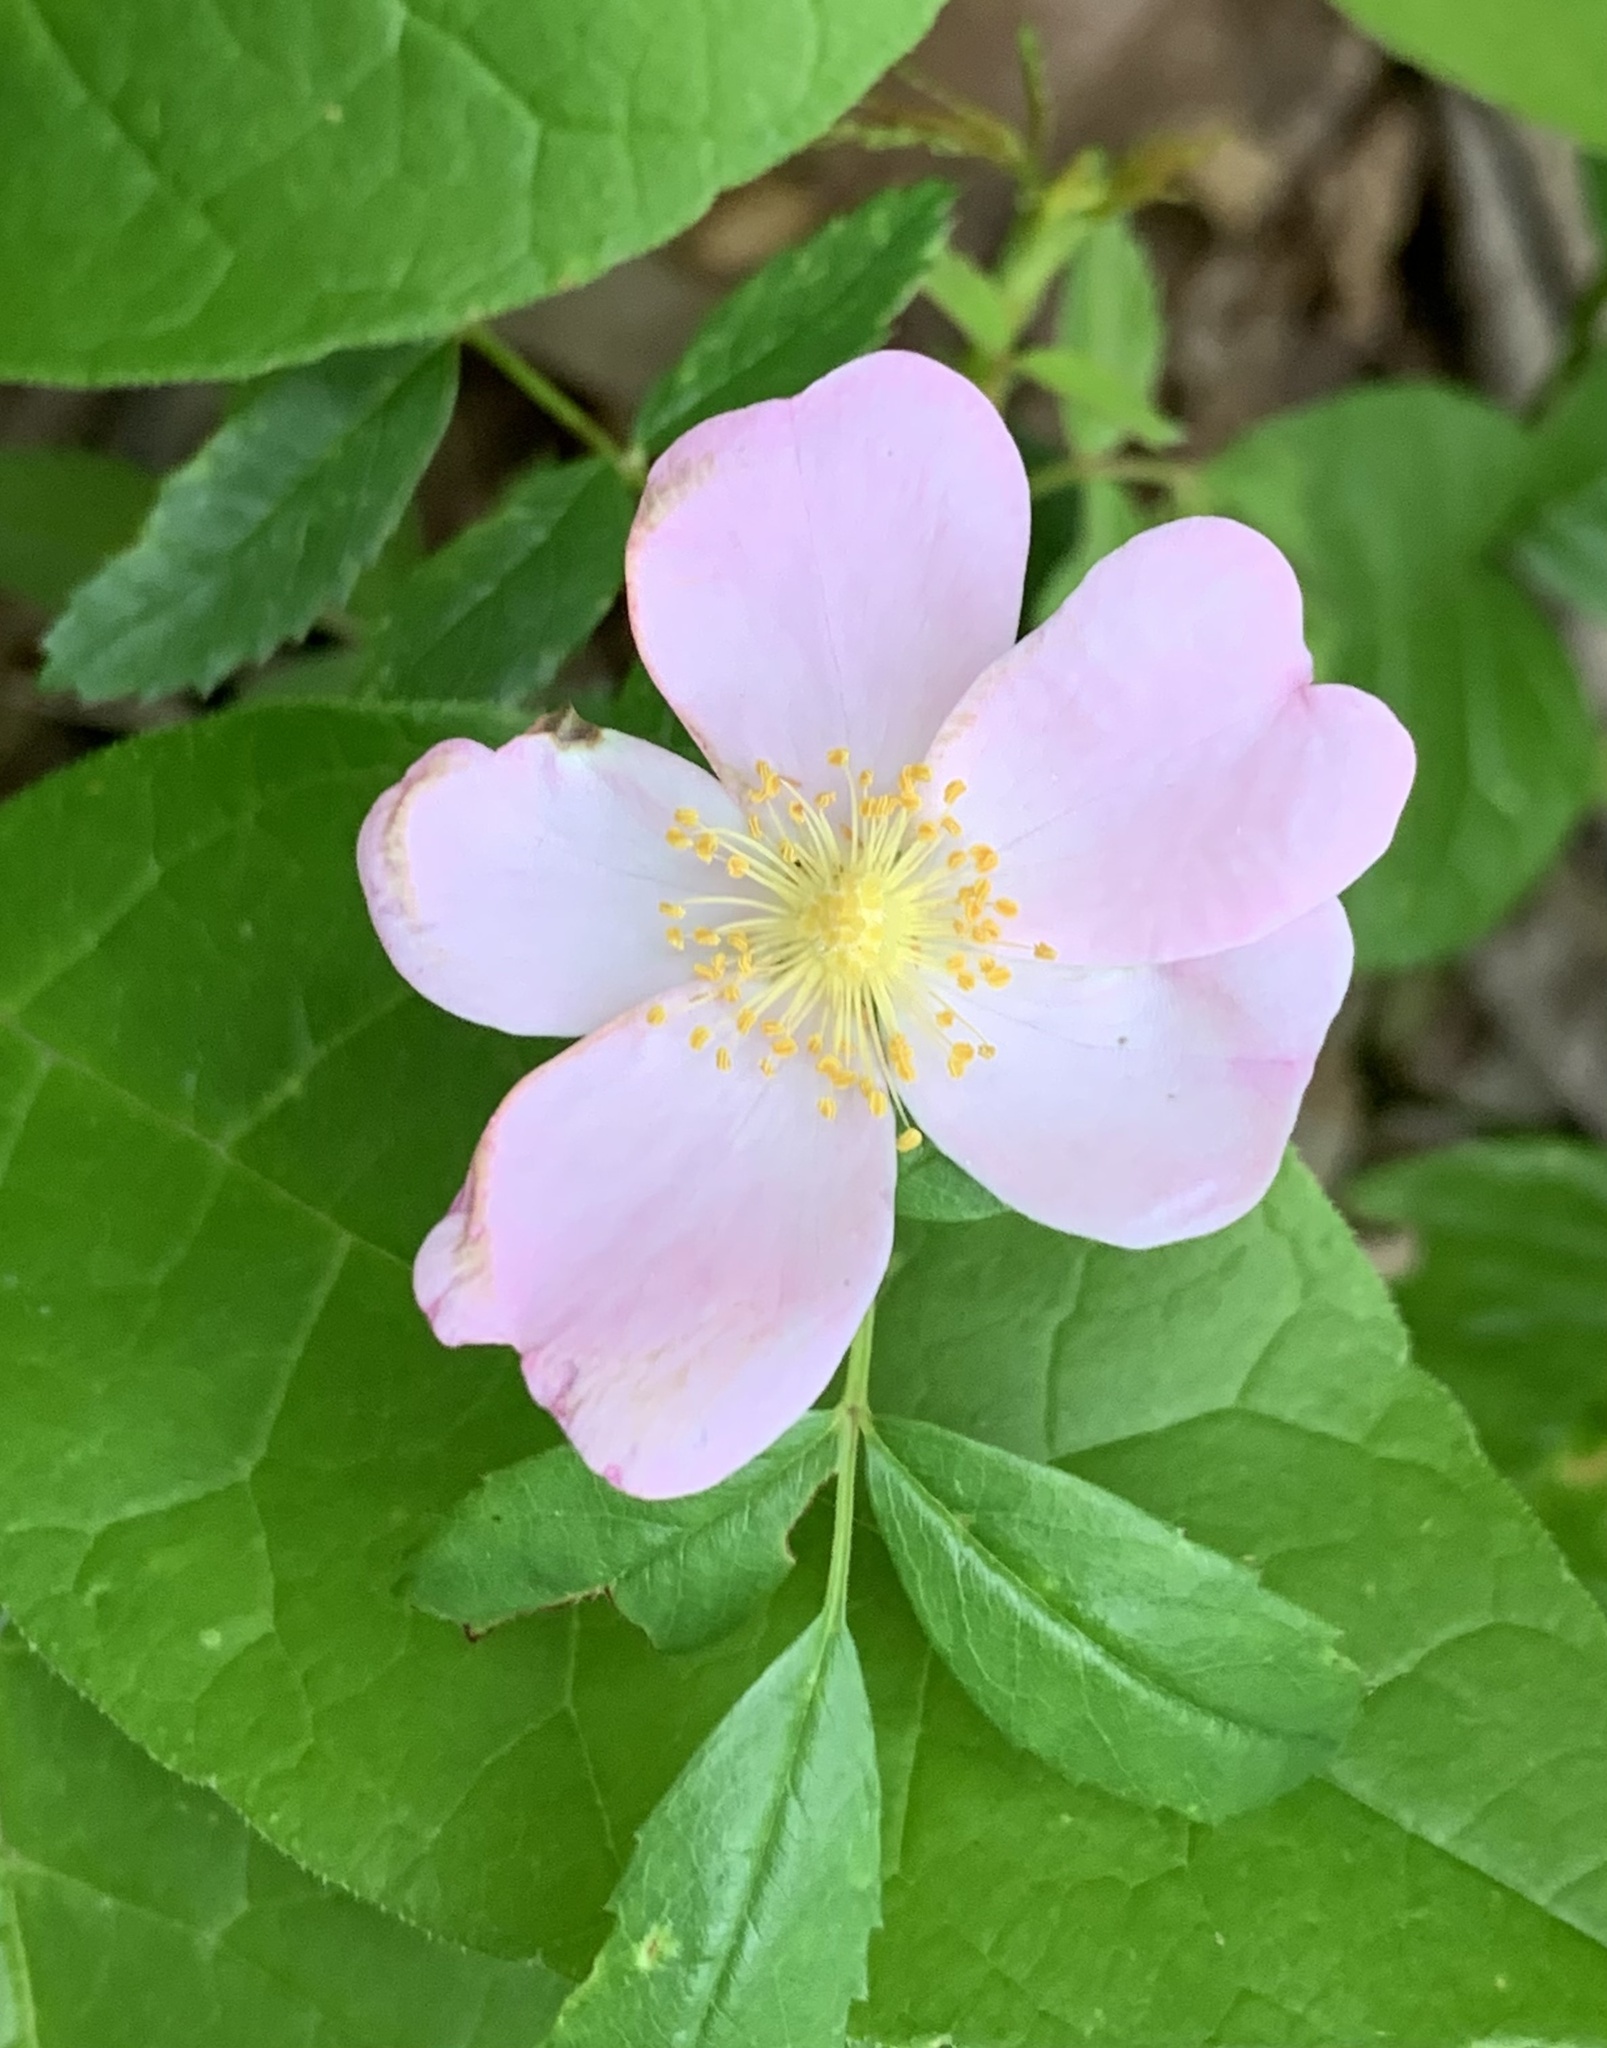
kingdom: Plantae
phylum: Tracheophyta
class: Magnoliopsida
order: Rosales
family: Rosaceae
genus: Rosa
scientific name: Rosa carolina
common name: Pasture rose
